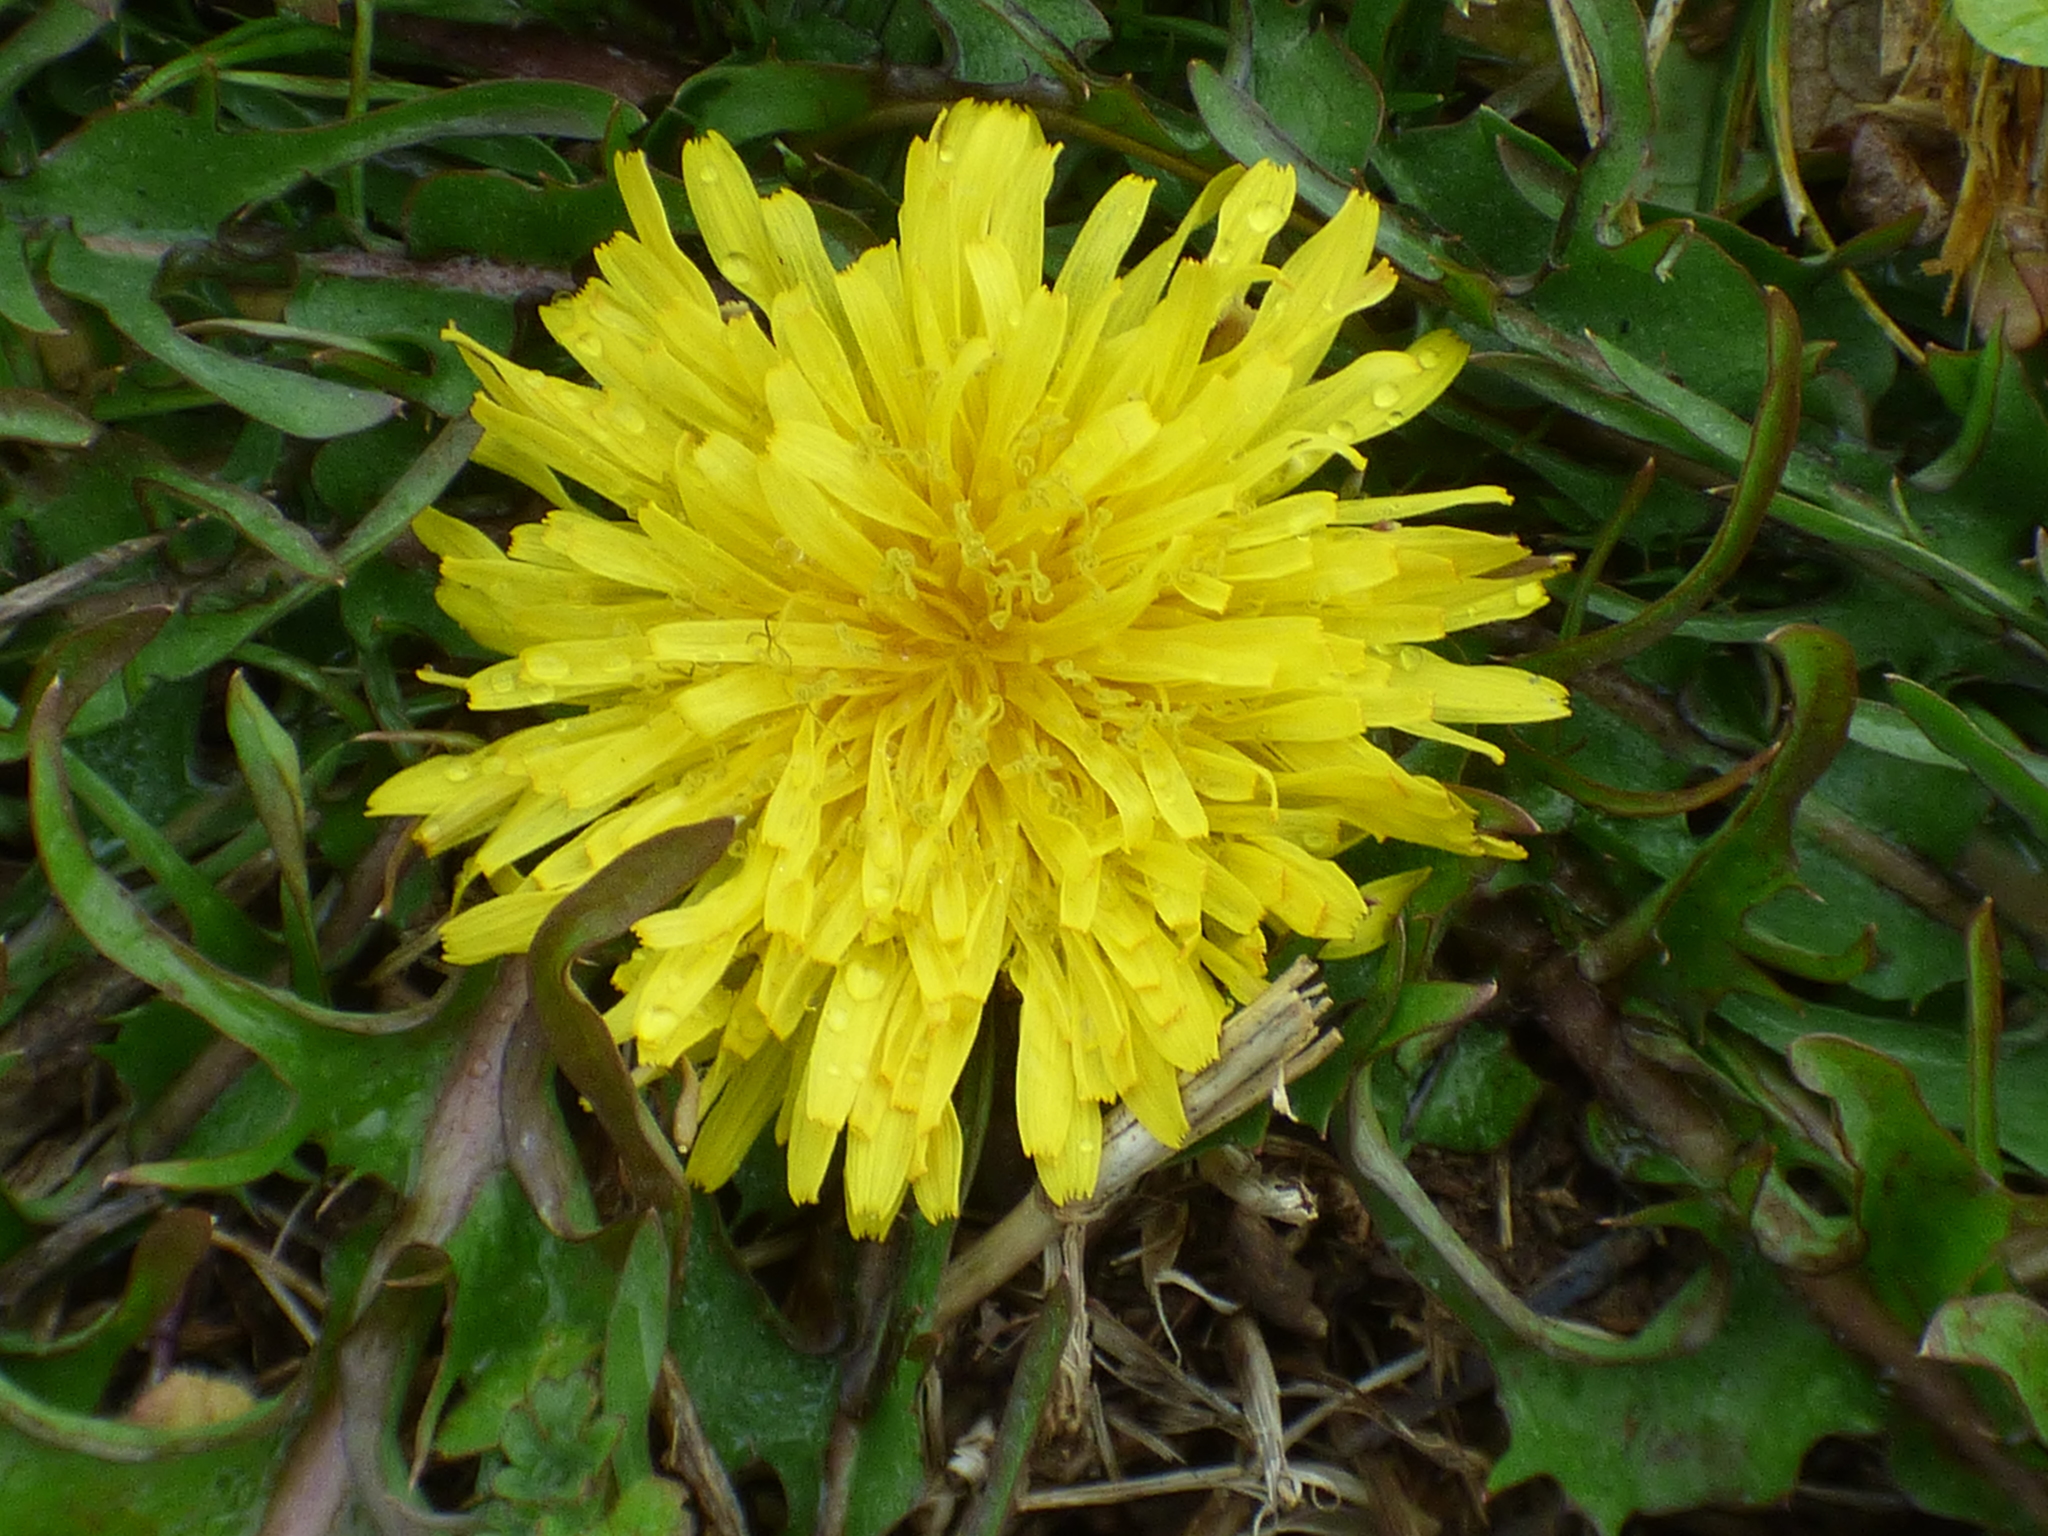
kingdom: Plantae
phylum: Tracheophyta
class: Magnoliopsida
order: Asterales
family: Asteraceae
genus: Taraxacum
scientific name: Taraxacum officinale
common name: Common dandelion
